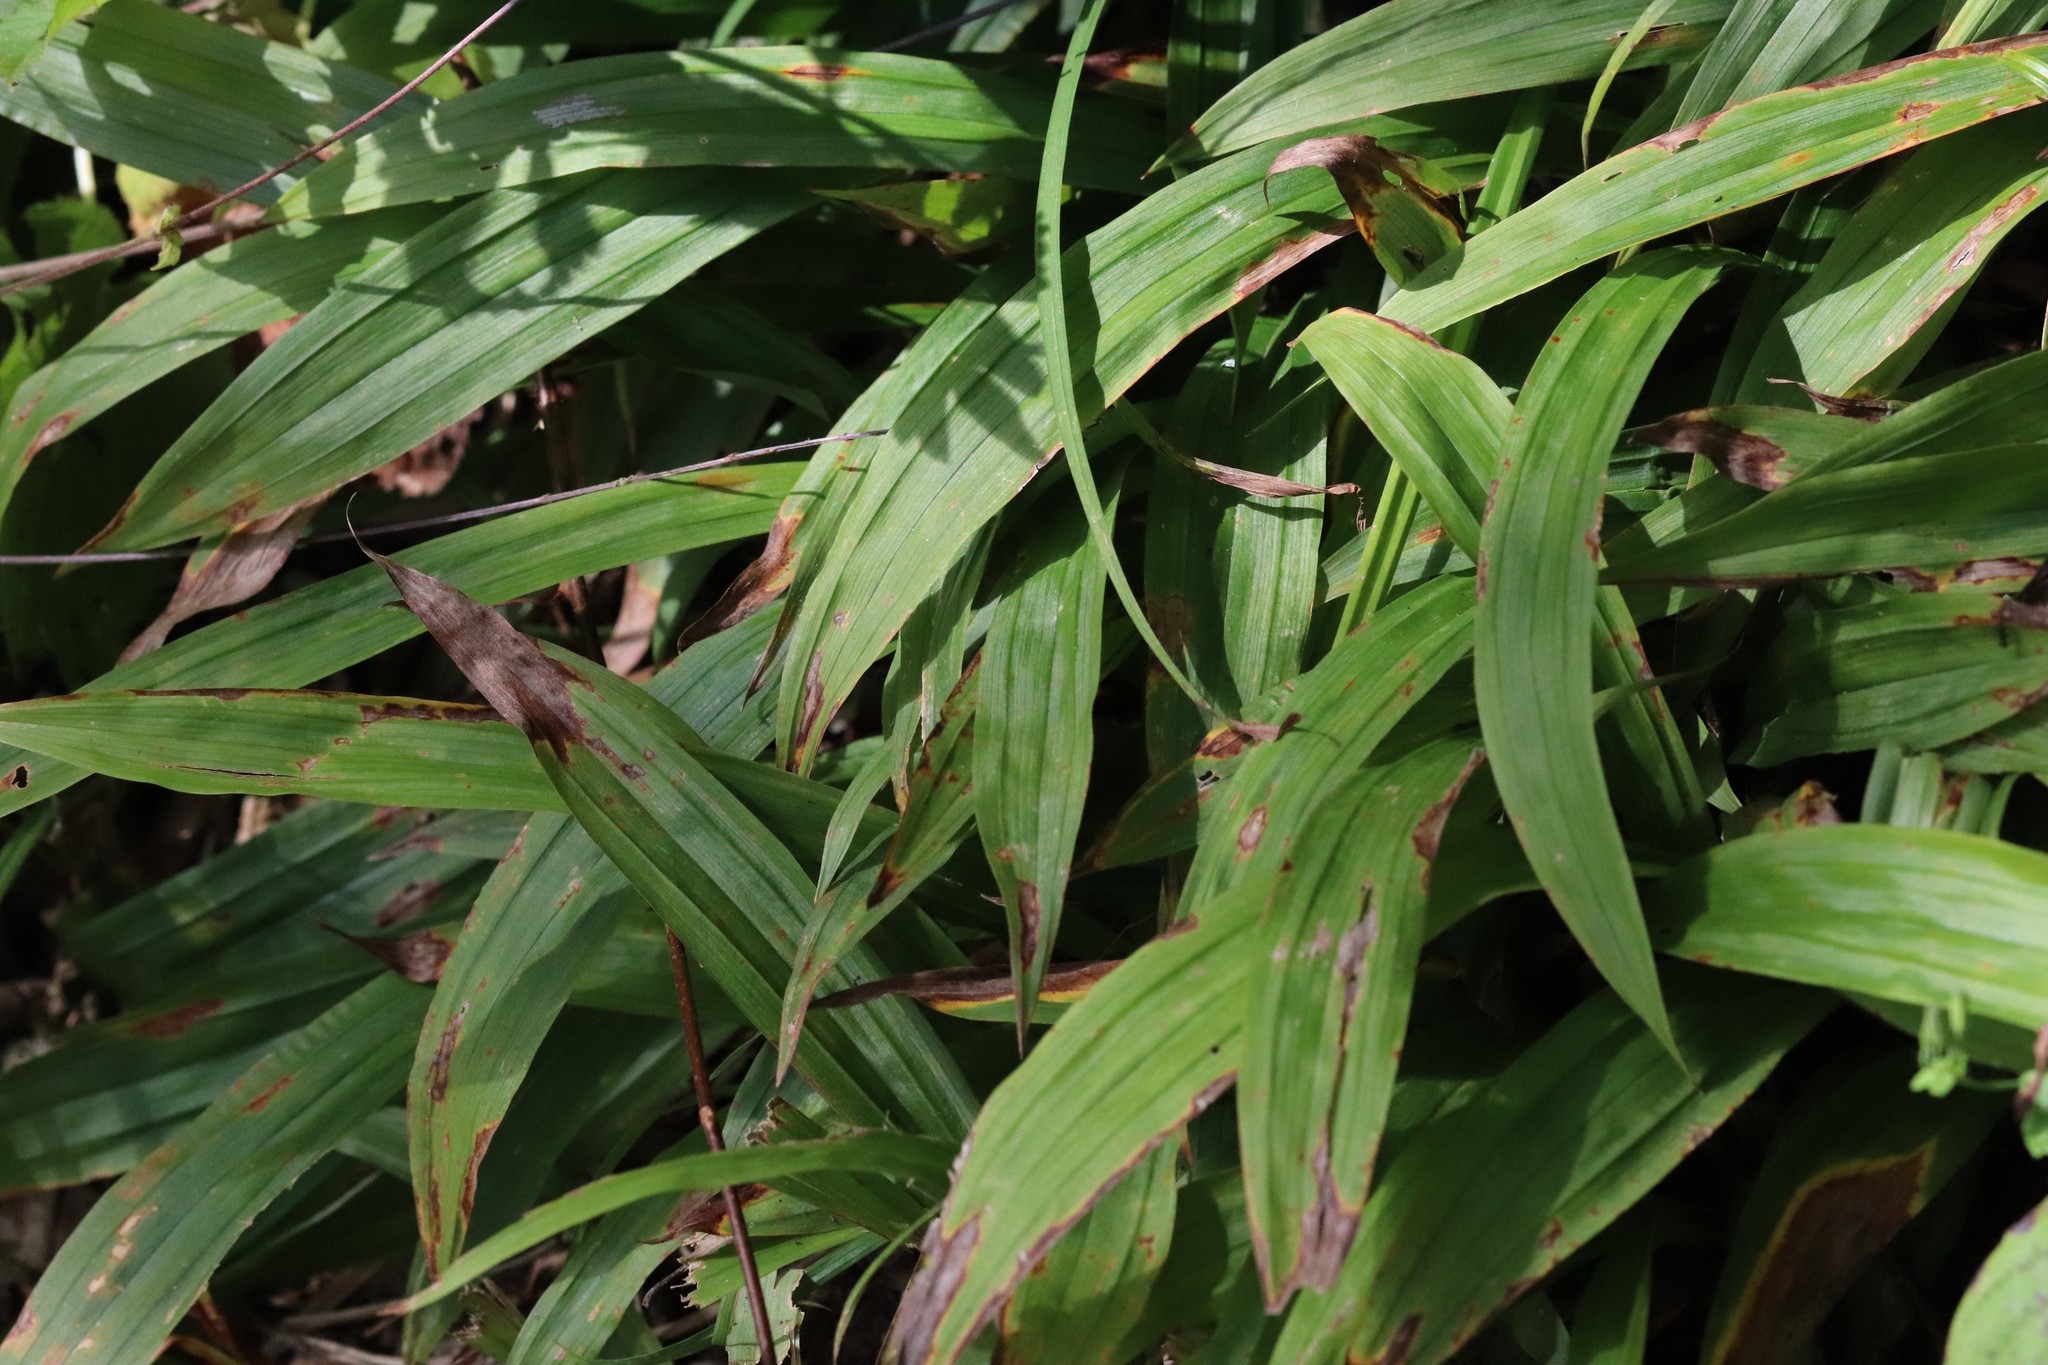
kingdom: Plantae
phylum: Tracheophyta
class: Liliopsida
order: Poales
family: Cyperaceae
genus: Carex
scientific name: Carex siderosticta
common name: Broadleaf sedge
